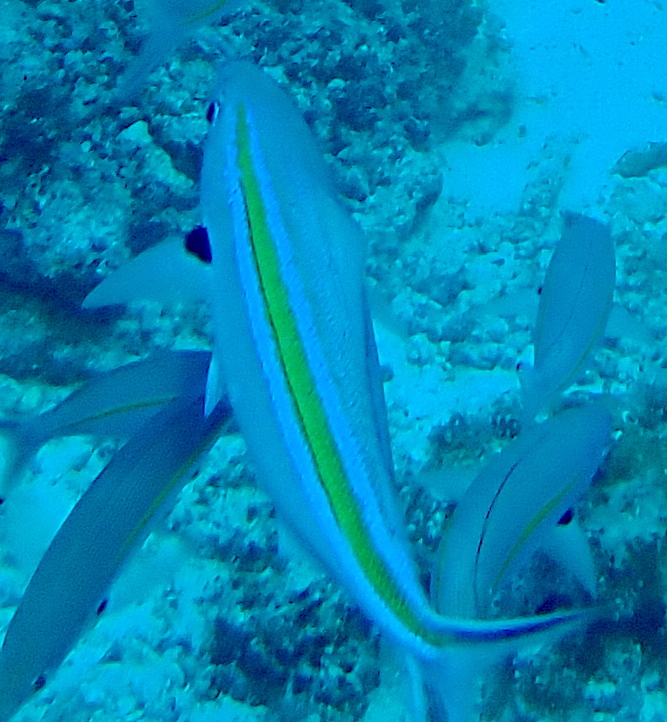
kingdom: Animalia
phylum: Chordata
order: Perciformes
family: Caesionidae
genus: Caesio
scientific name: Caesio caerulaurea
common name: Blue and gold fusilier
